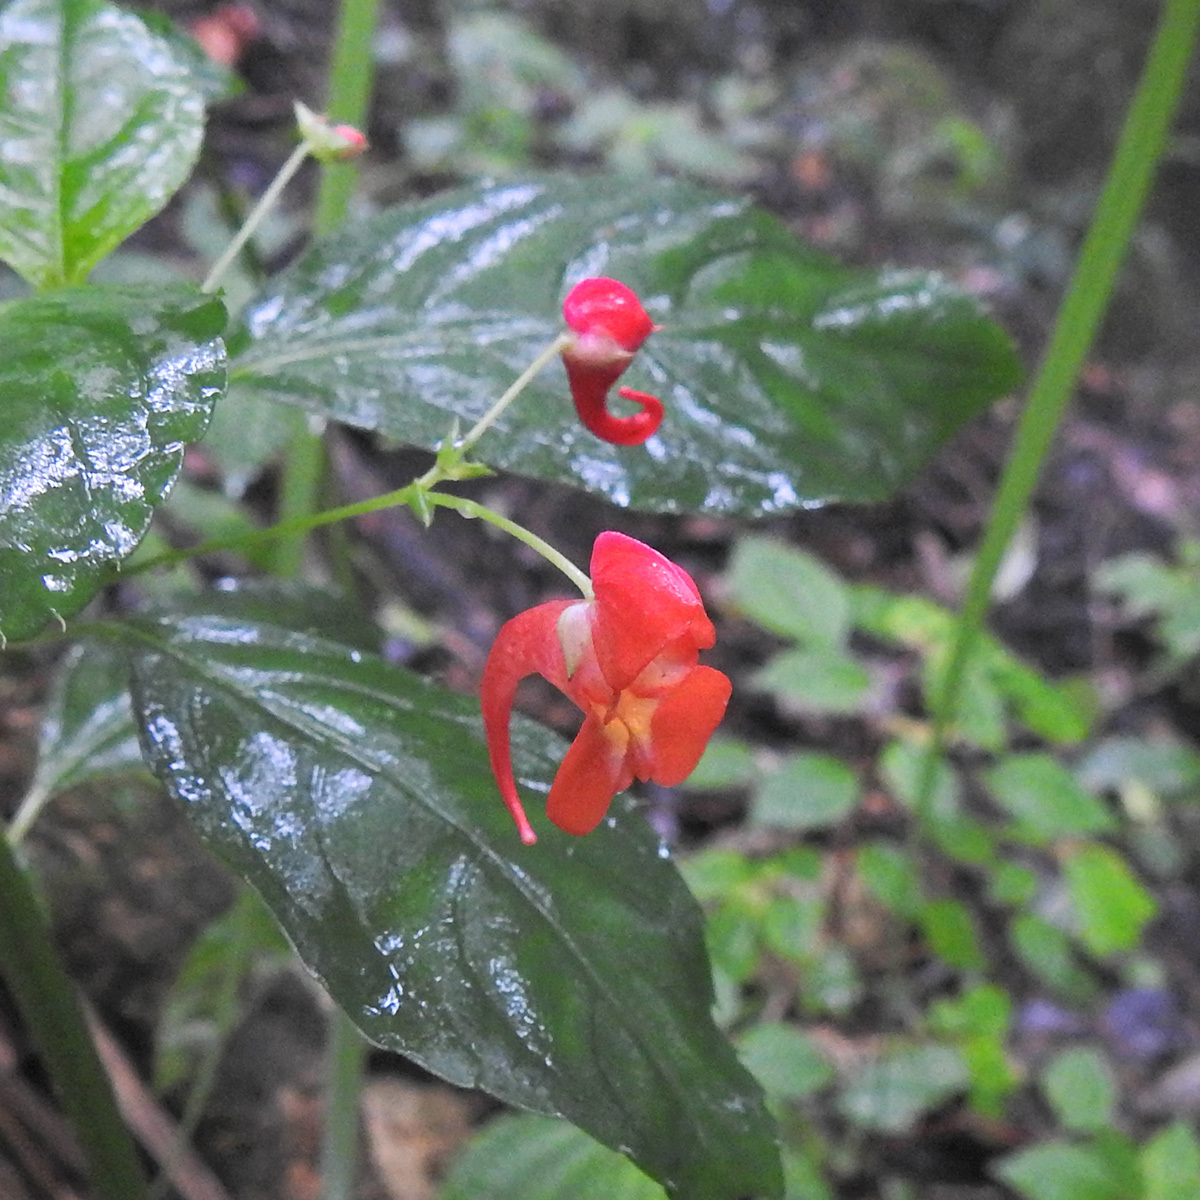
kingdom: Plantae
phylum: Tracheophyta
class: Magnoliopsida
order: Ericales
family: Balsaminaceae
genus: Impatiens
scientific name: Impatiens phoenicea
